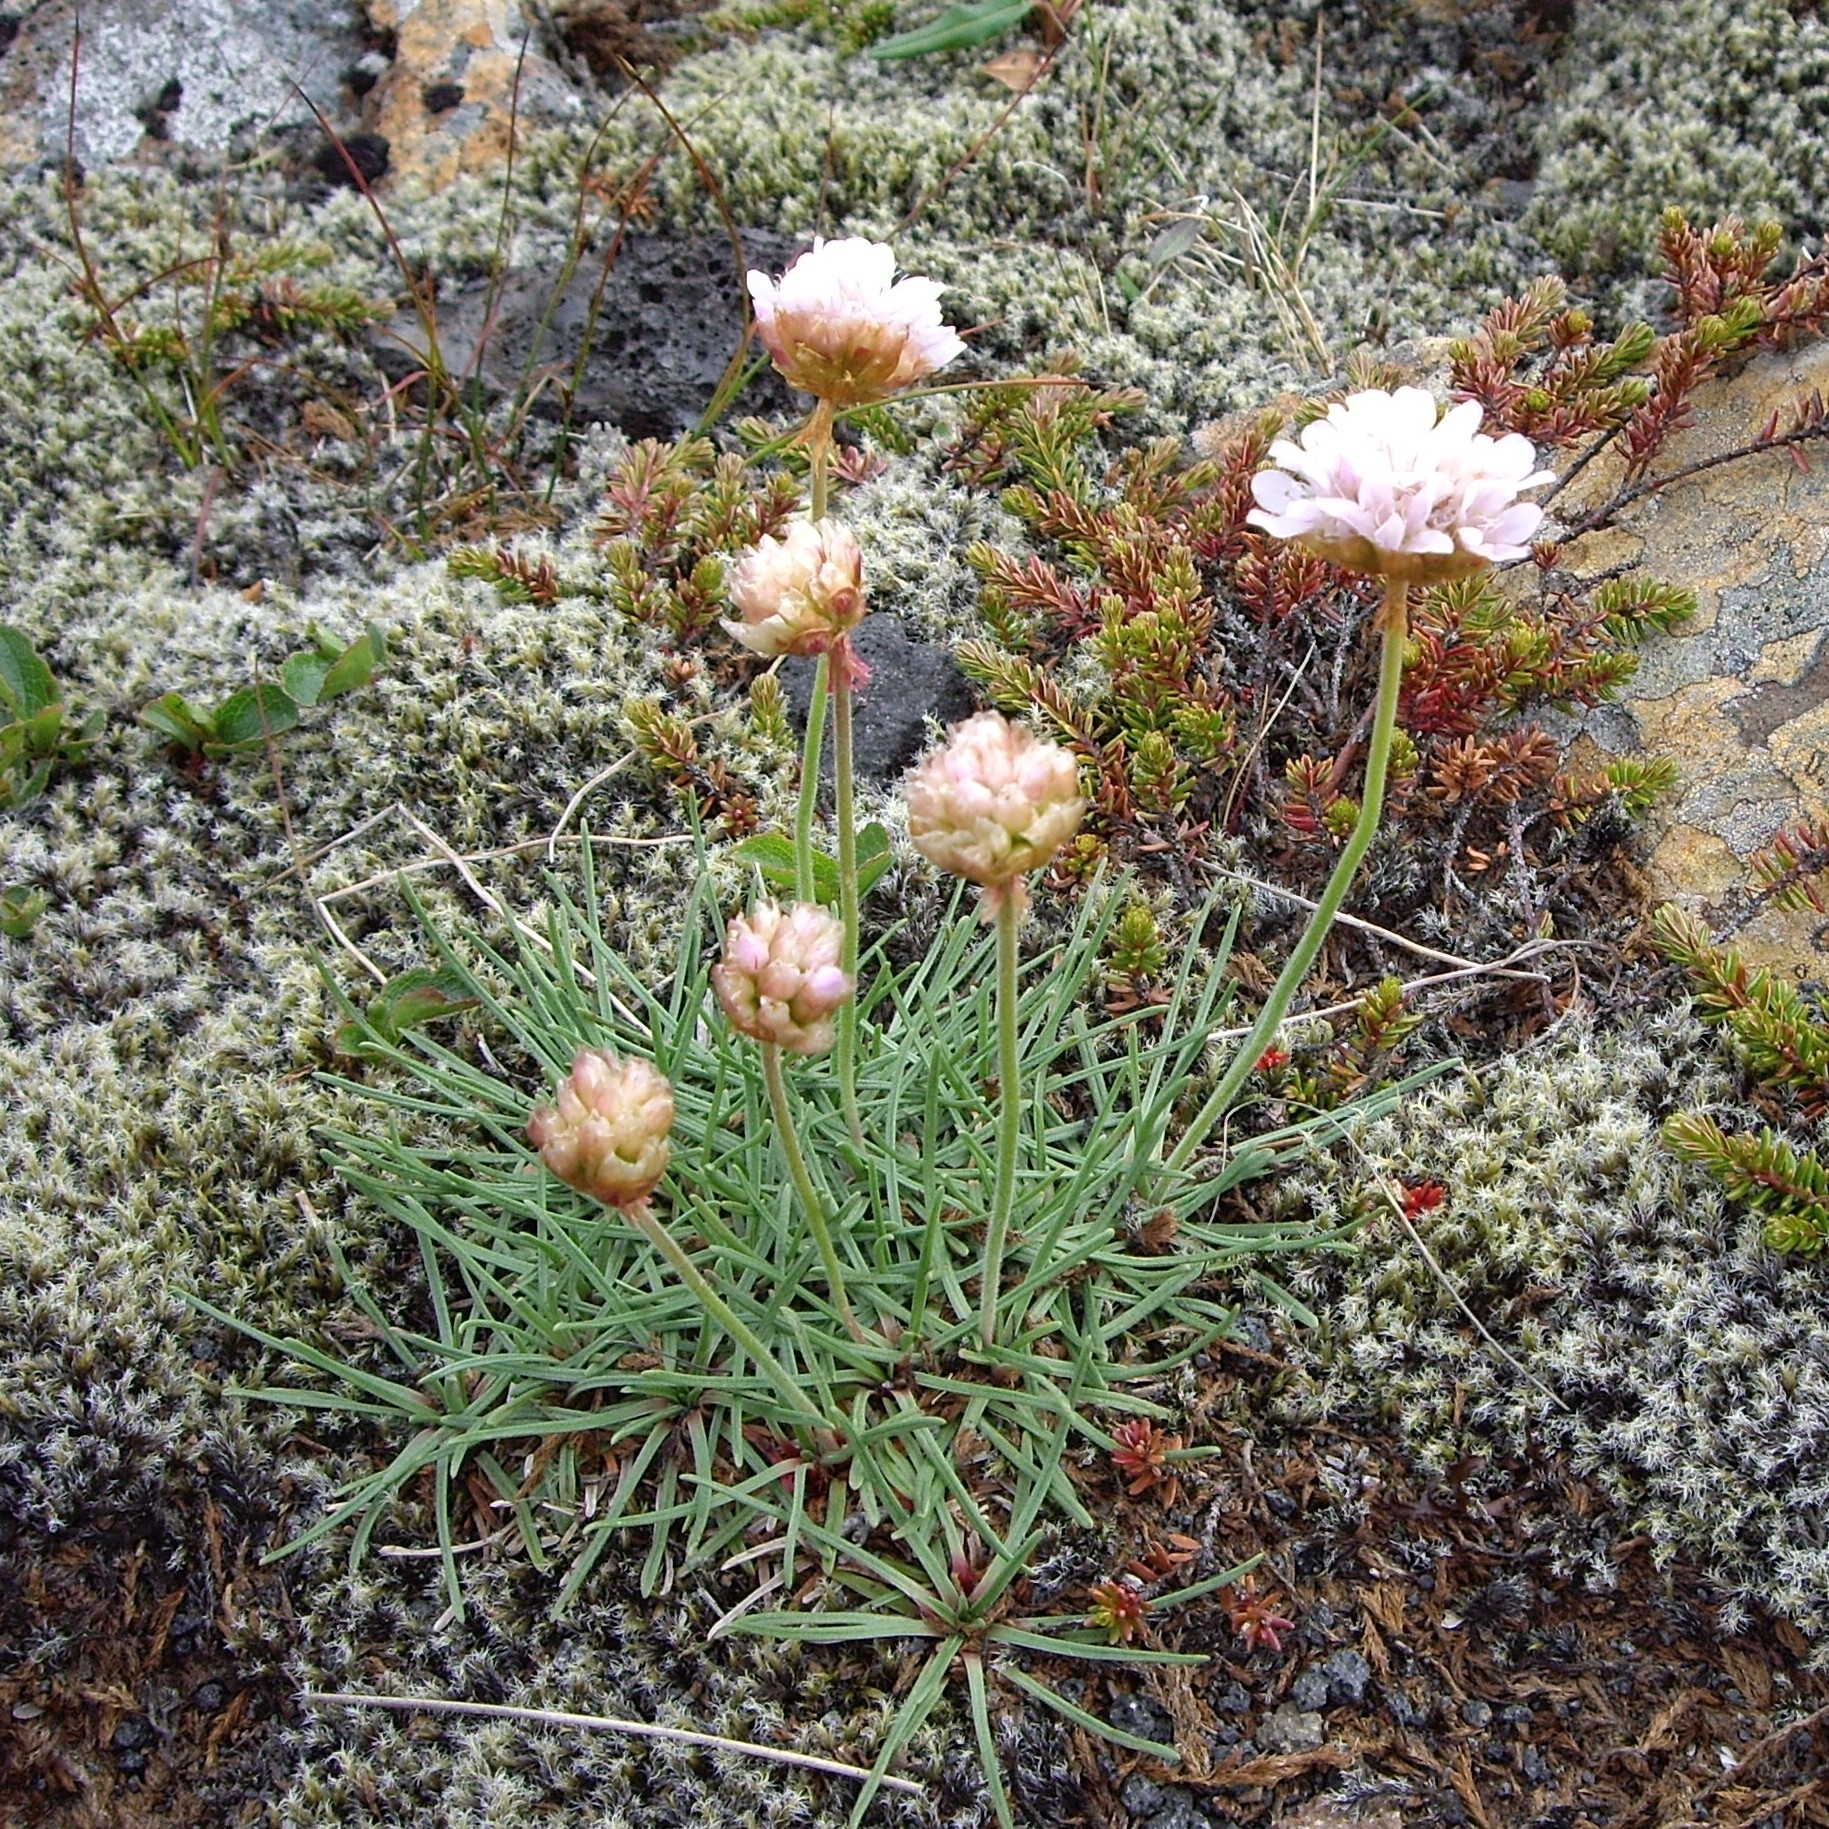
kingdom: Plantae
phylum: Tracheophyta
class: Magnoliopsida
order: Caryophyllales
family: Plumbaginaceae
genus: Armeria
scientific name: Armeria maritima
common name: Thrift
